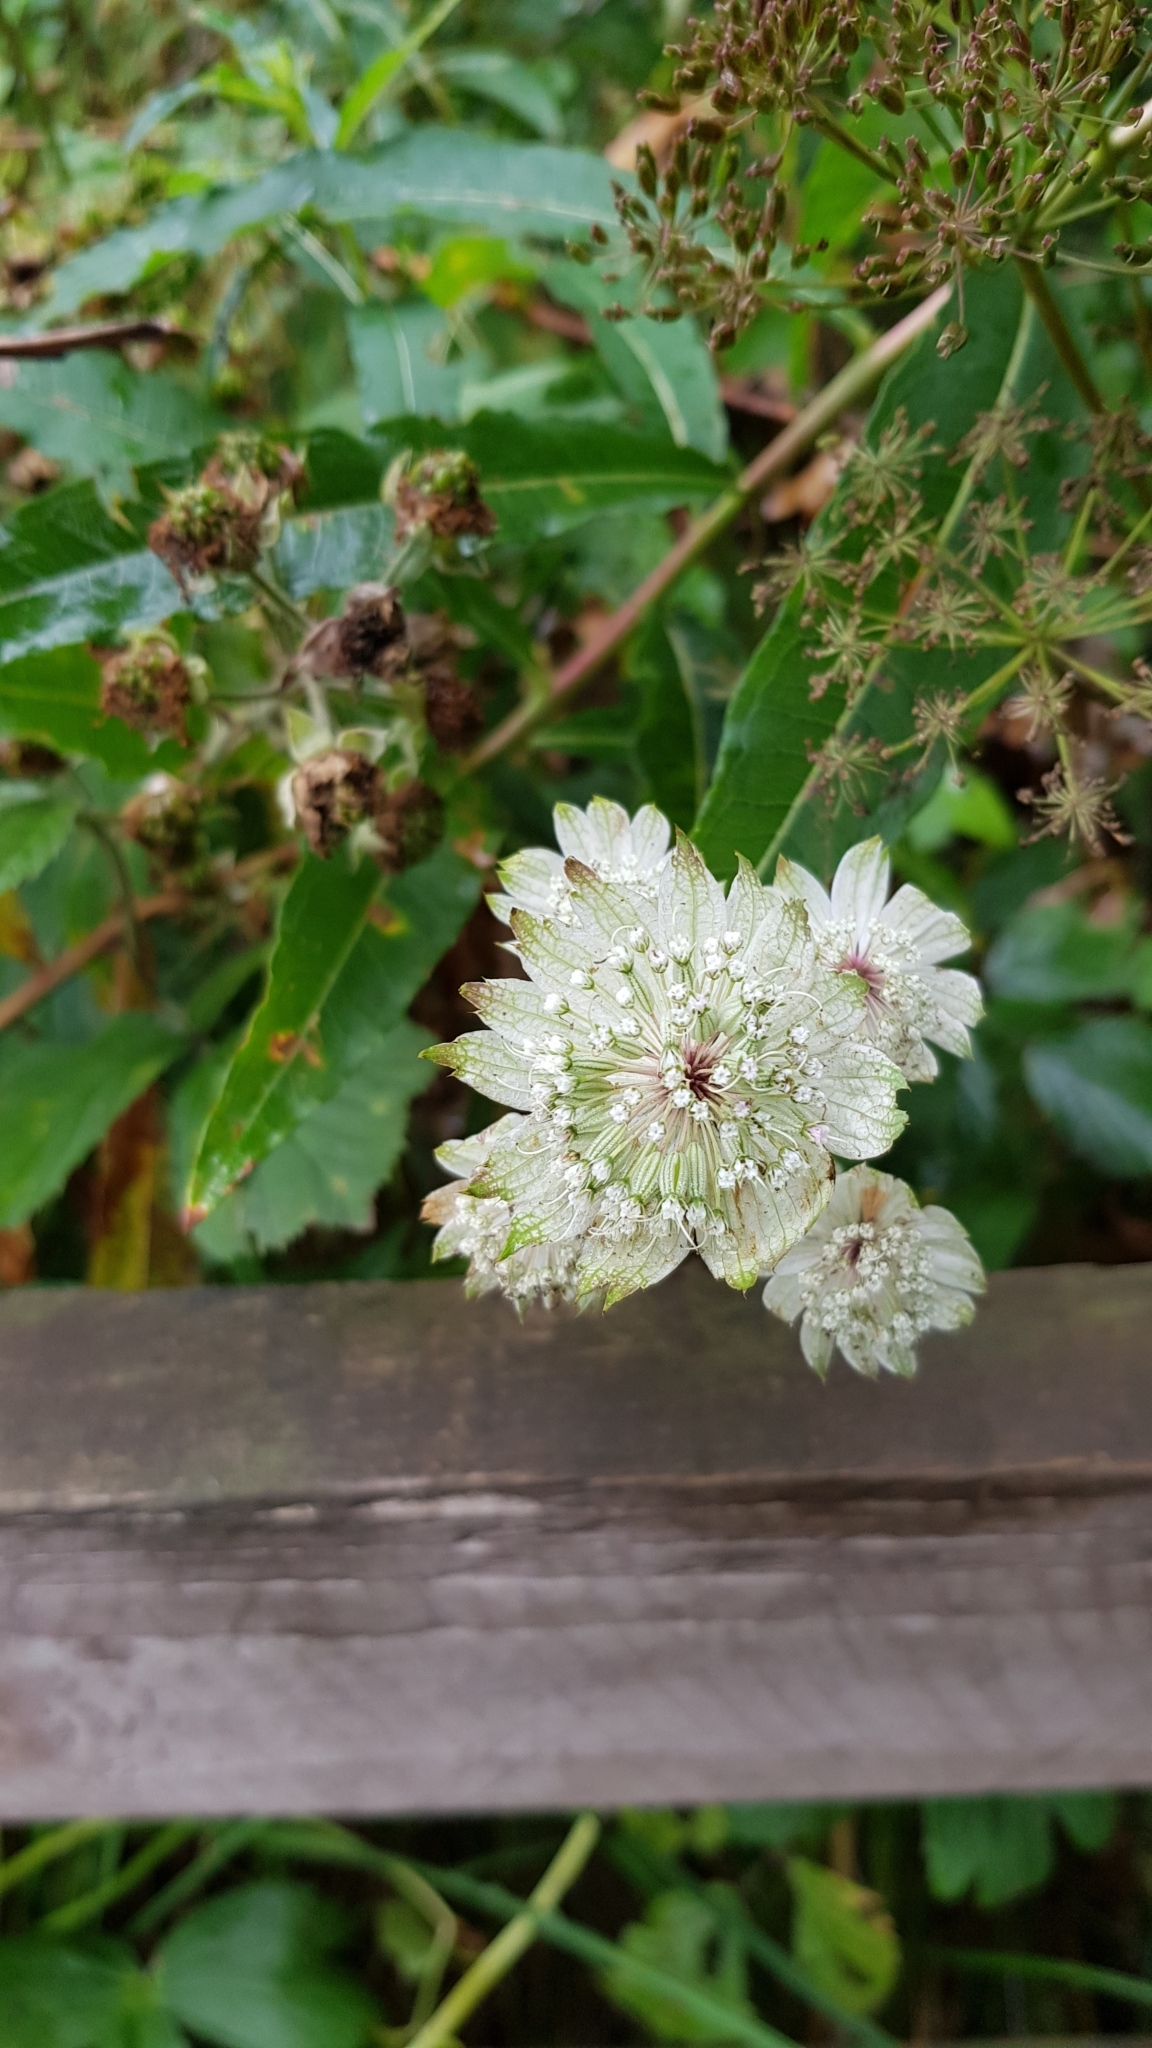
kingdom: Plantae
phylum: Tracheophyta
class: Magnoliopsida
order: Apiales
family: Apiaceae
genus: Astrantia
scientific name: Astrantia major
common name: Greater masterwort
